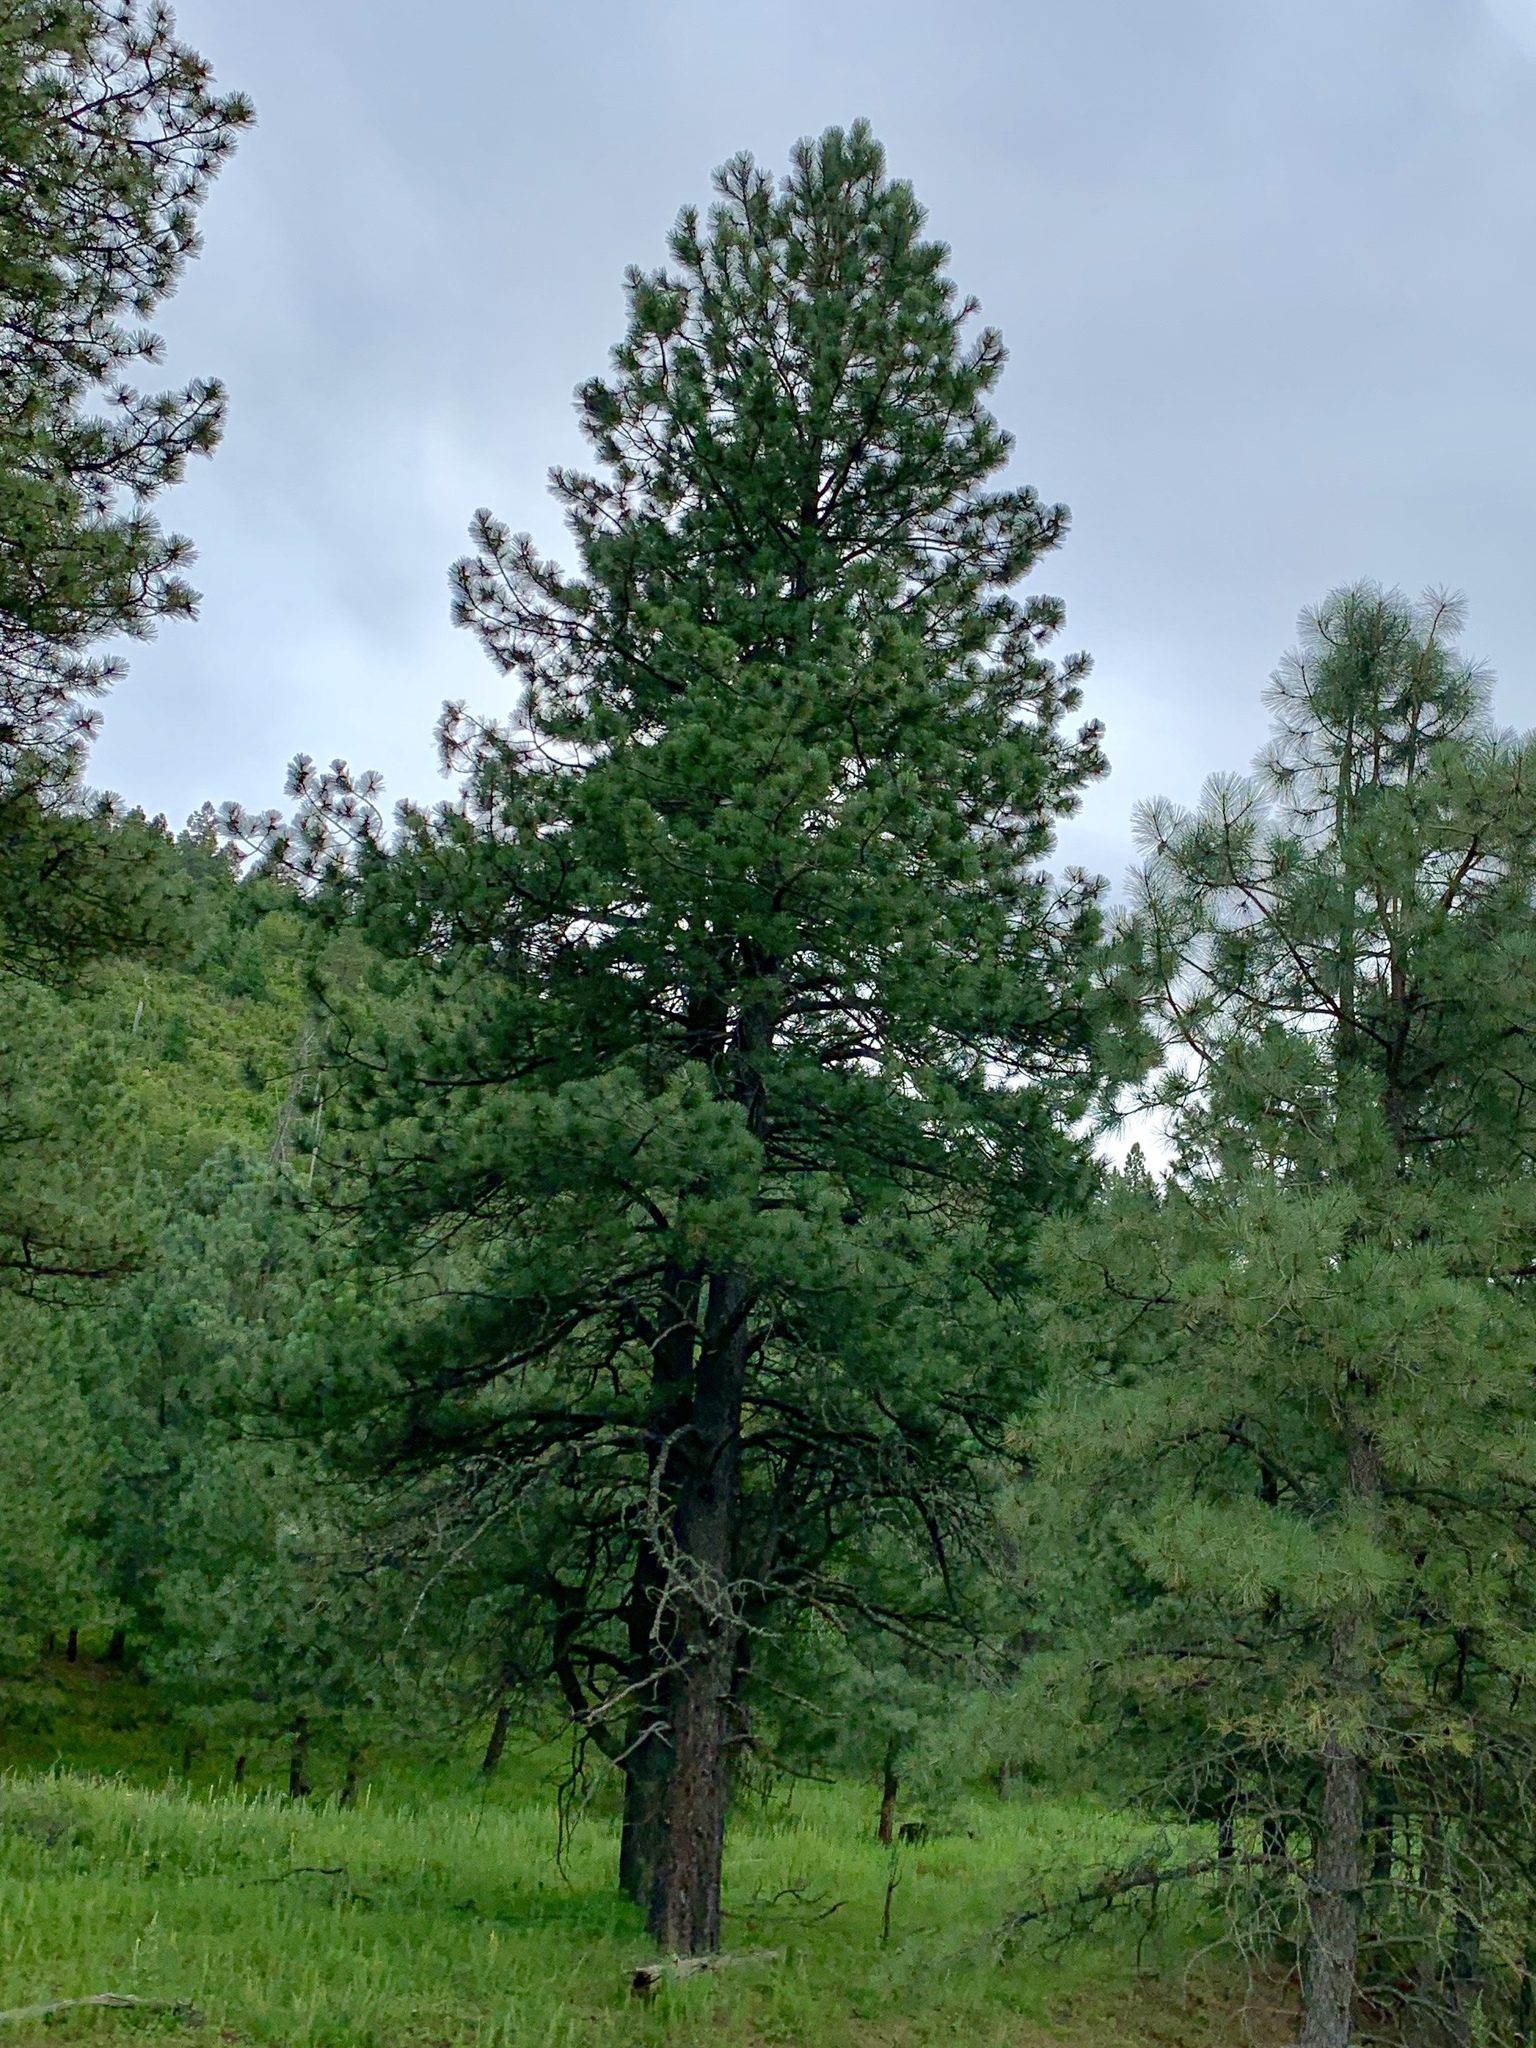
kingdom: Plantae
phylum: Tracheophyta
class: Pinopsida
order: Pinales
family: Pinaceae
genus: Pinus
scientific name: Pinus ponderosa
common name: Western yellow-pine
